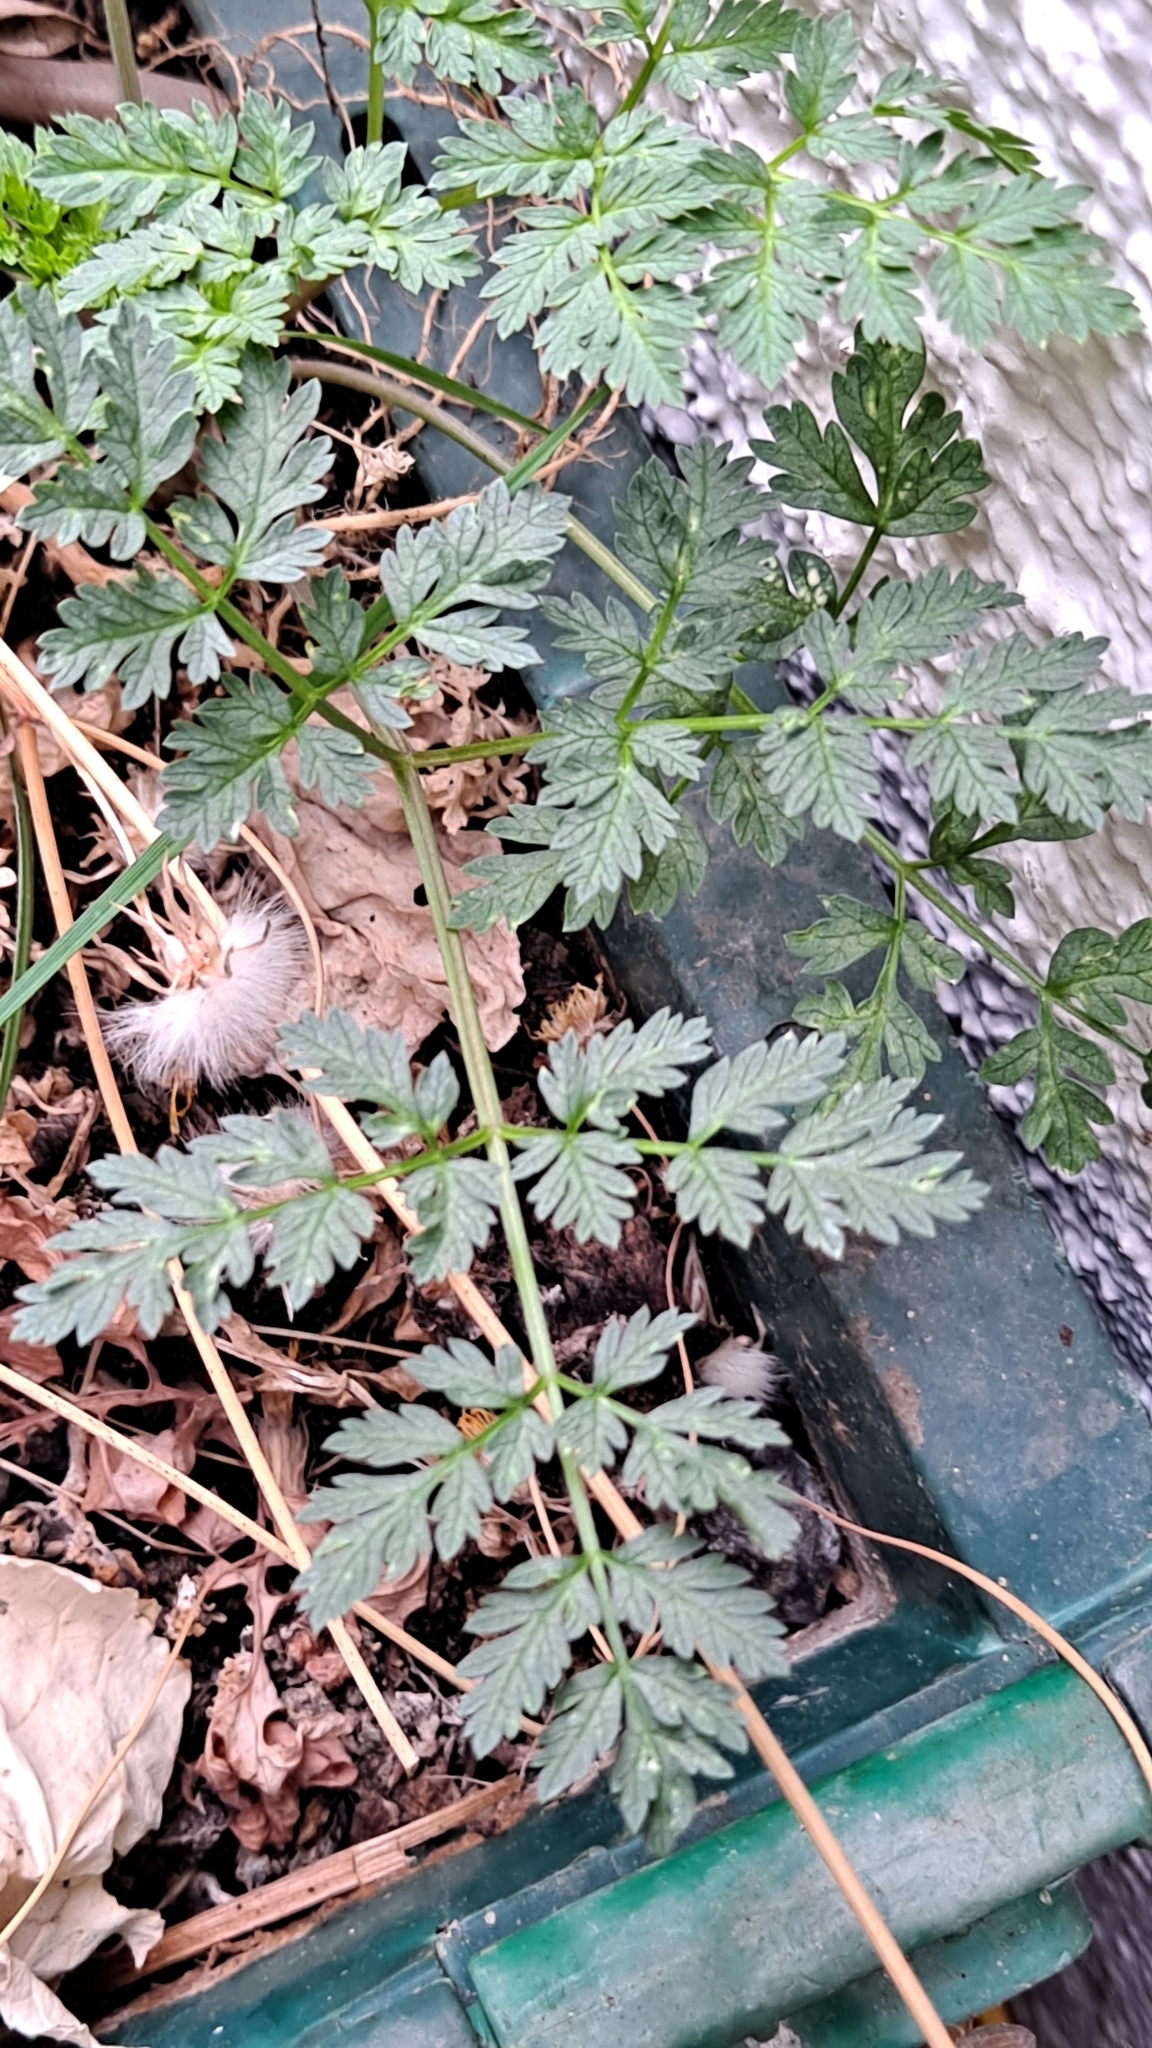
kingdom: Plantae
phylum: Tracheophyta
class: Magnoliopsida
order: Apiales
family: Apiaceae
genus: Conium
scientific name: Conium maculatum
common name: Hemlock
